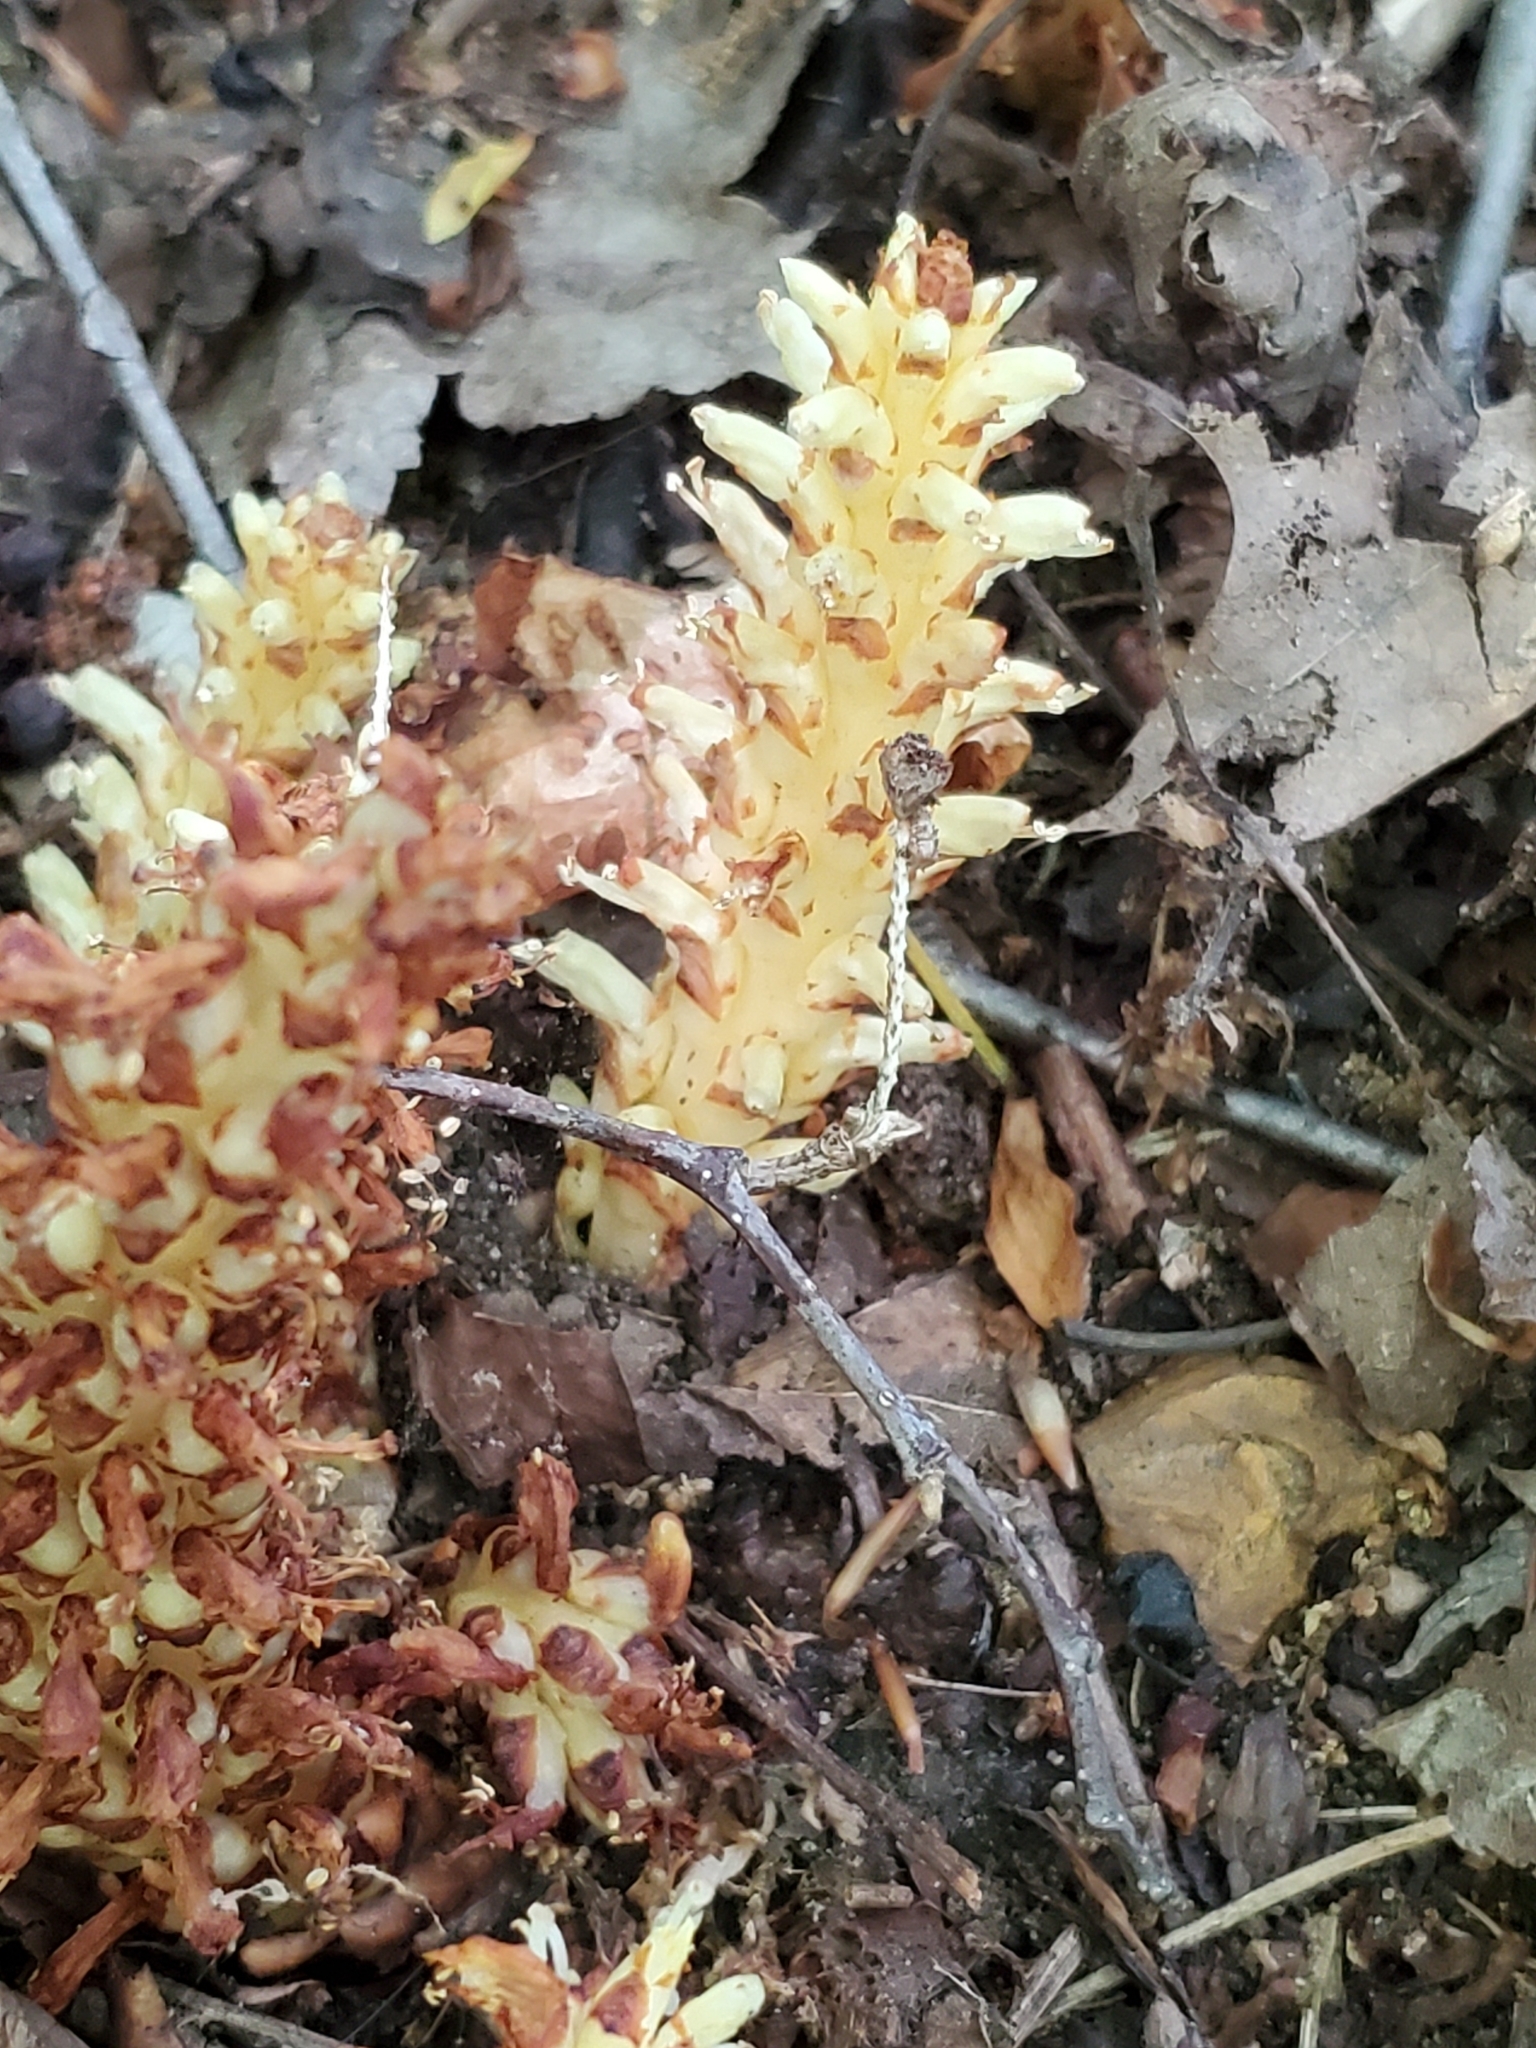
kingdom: Plantae
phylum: Tracheophyta
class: Magnoliopsida
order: Lamiales
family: Orobanchaceae
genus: Conopholis
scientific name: Conopholis americana
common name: American cancer-root
